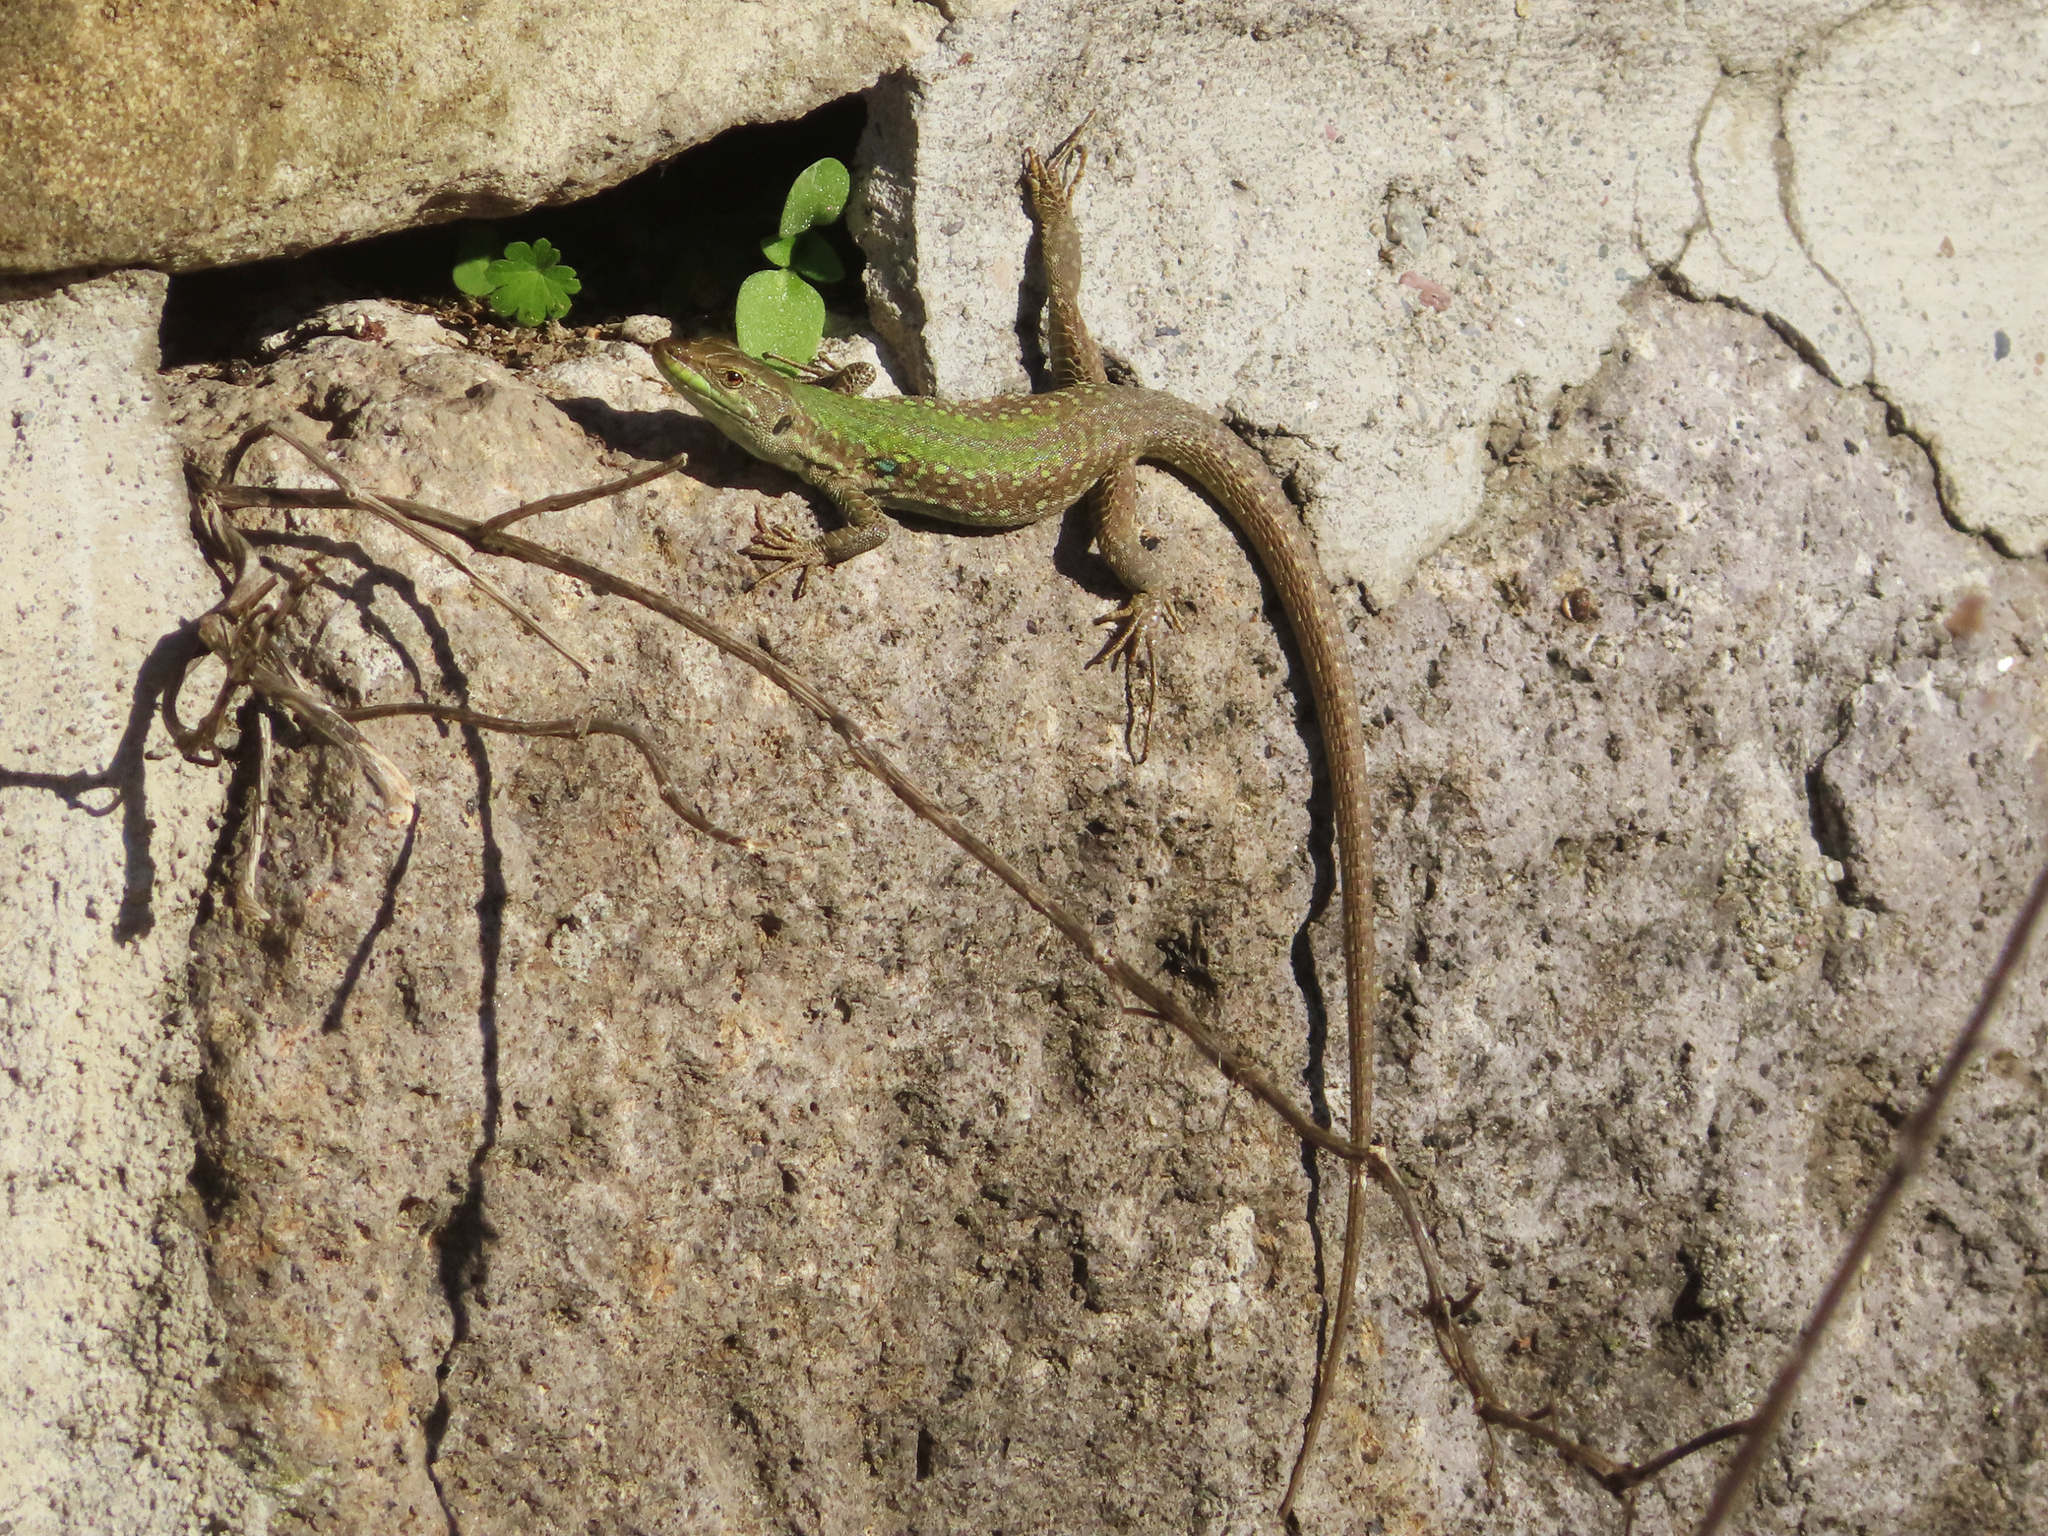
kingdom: Animalia
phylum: Chordata
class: Squamata
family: Lacertidae
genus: Podarcis
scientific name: Podarcis siculus
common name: Italian wall lizard
